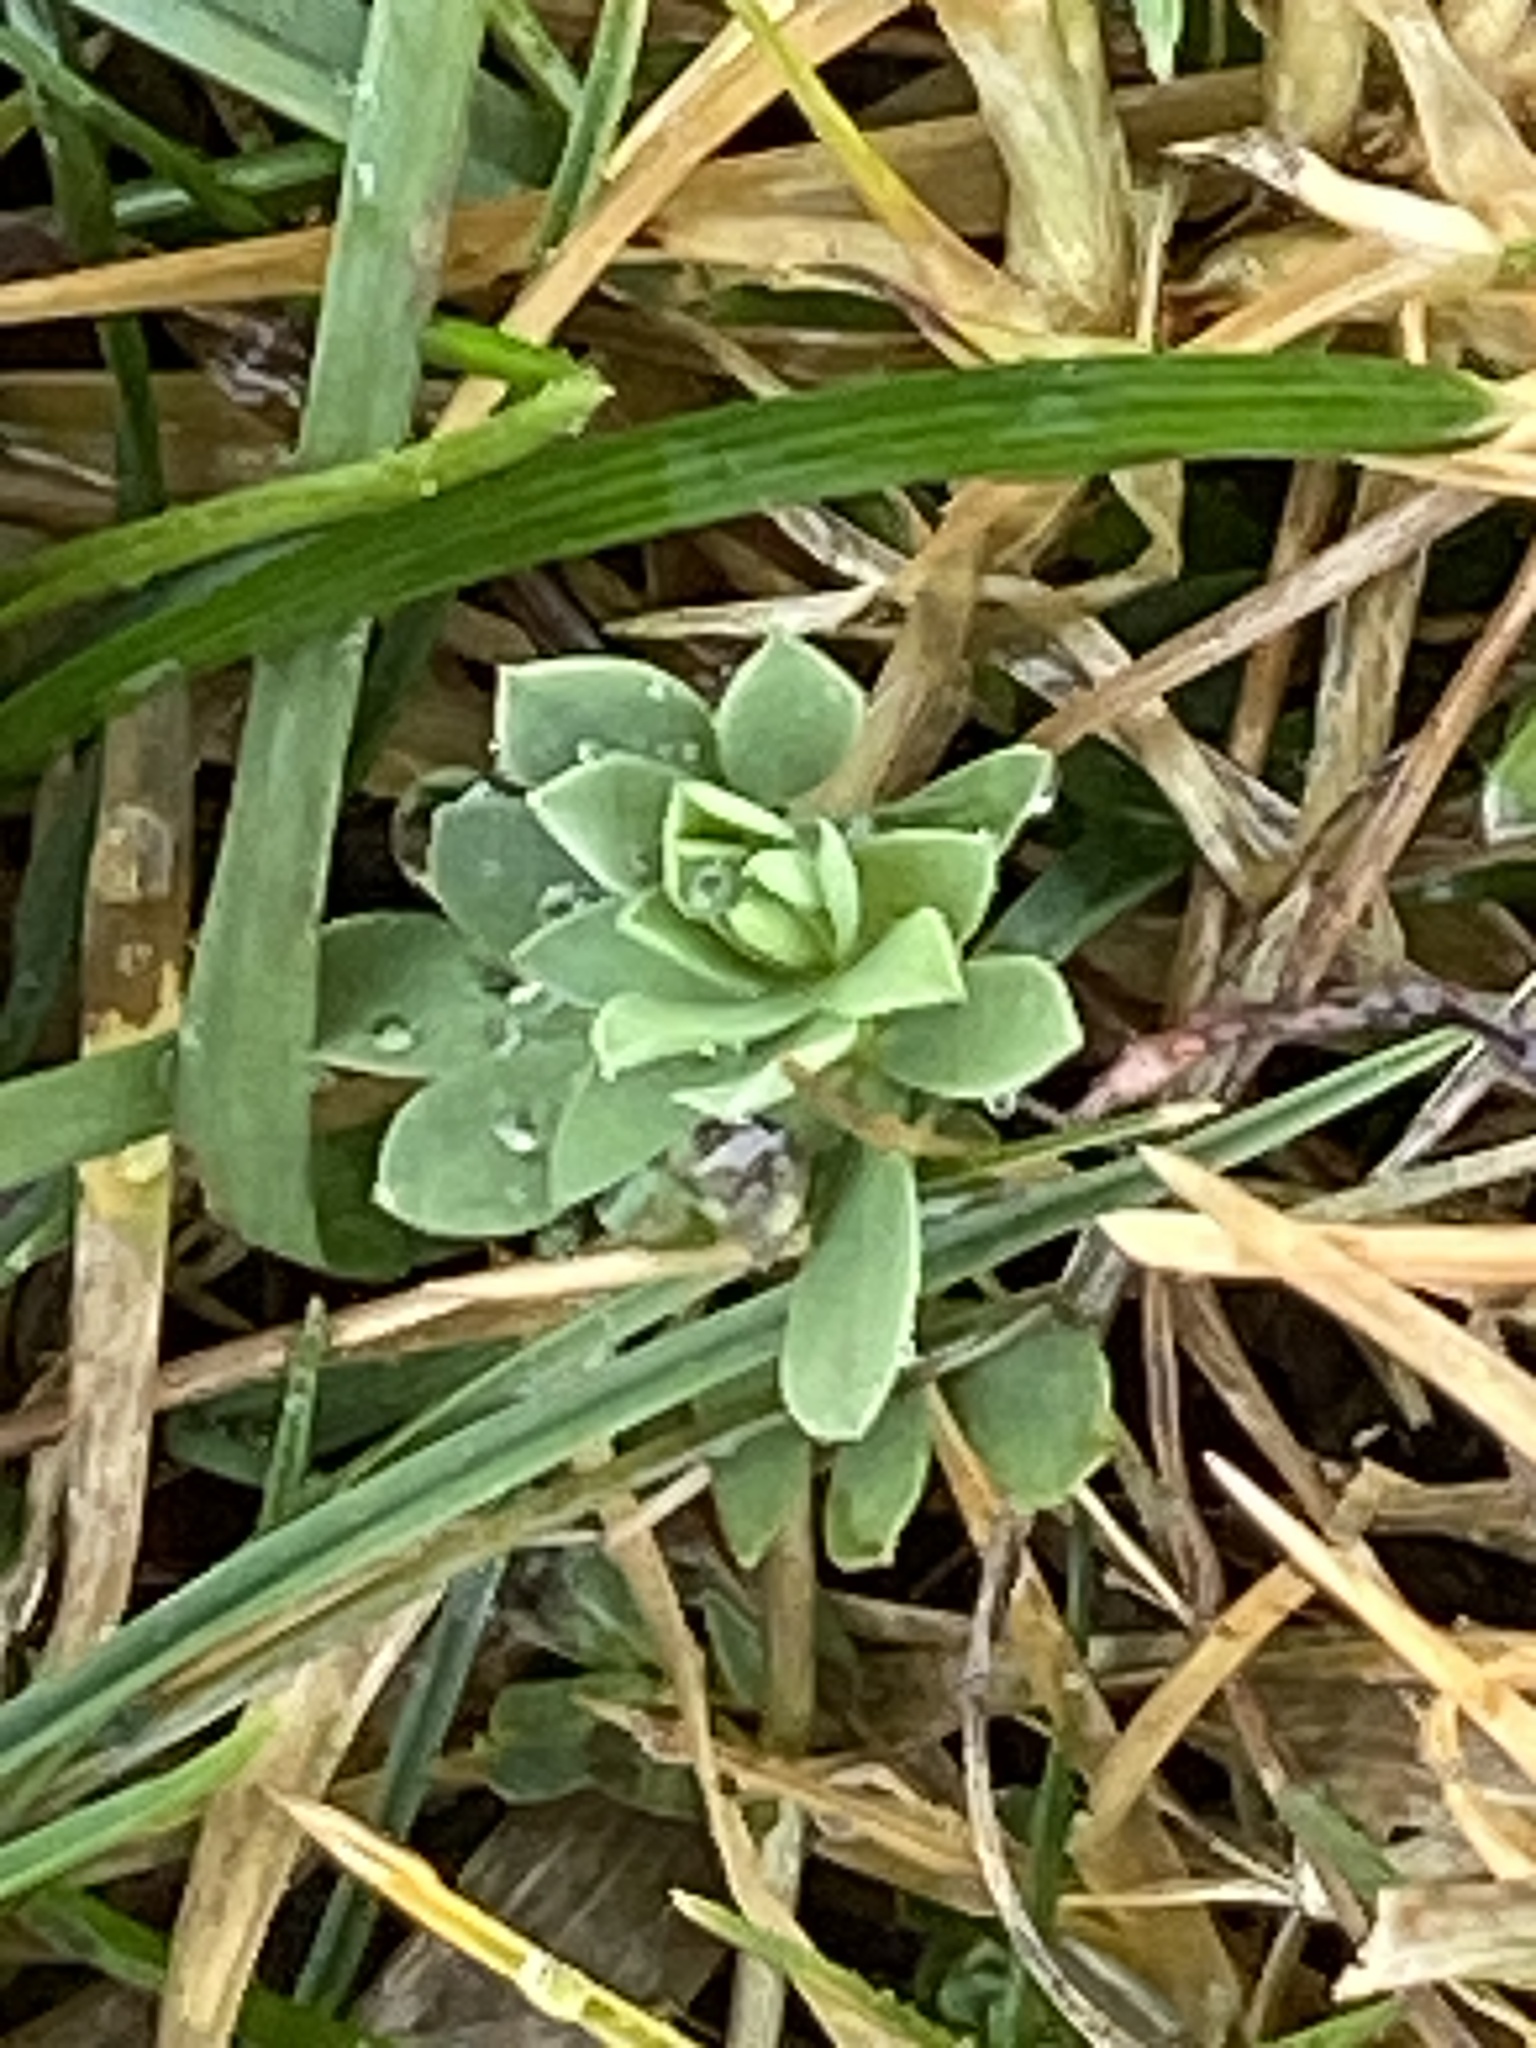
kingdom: Plantae
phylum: Tracheophyta
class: Magnoliopsida
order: Fabales
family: Fabaceae
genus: Lotus
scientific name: Lotus corniculatus
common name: Common bird's-foot-trefoil
